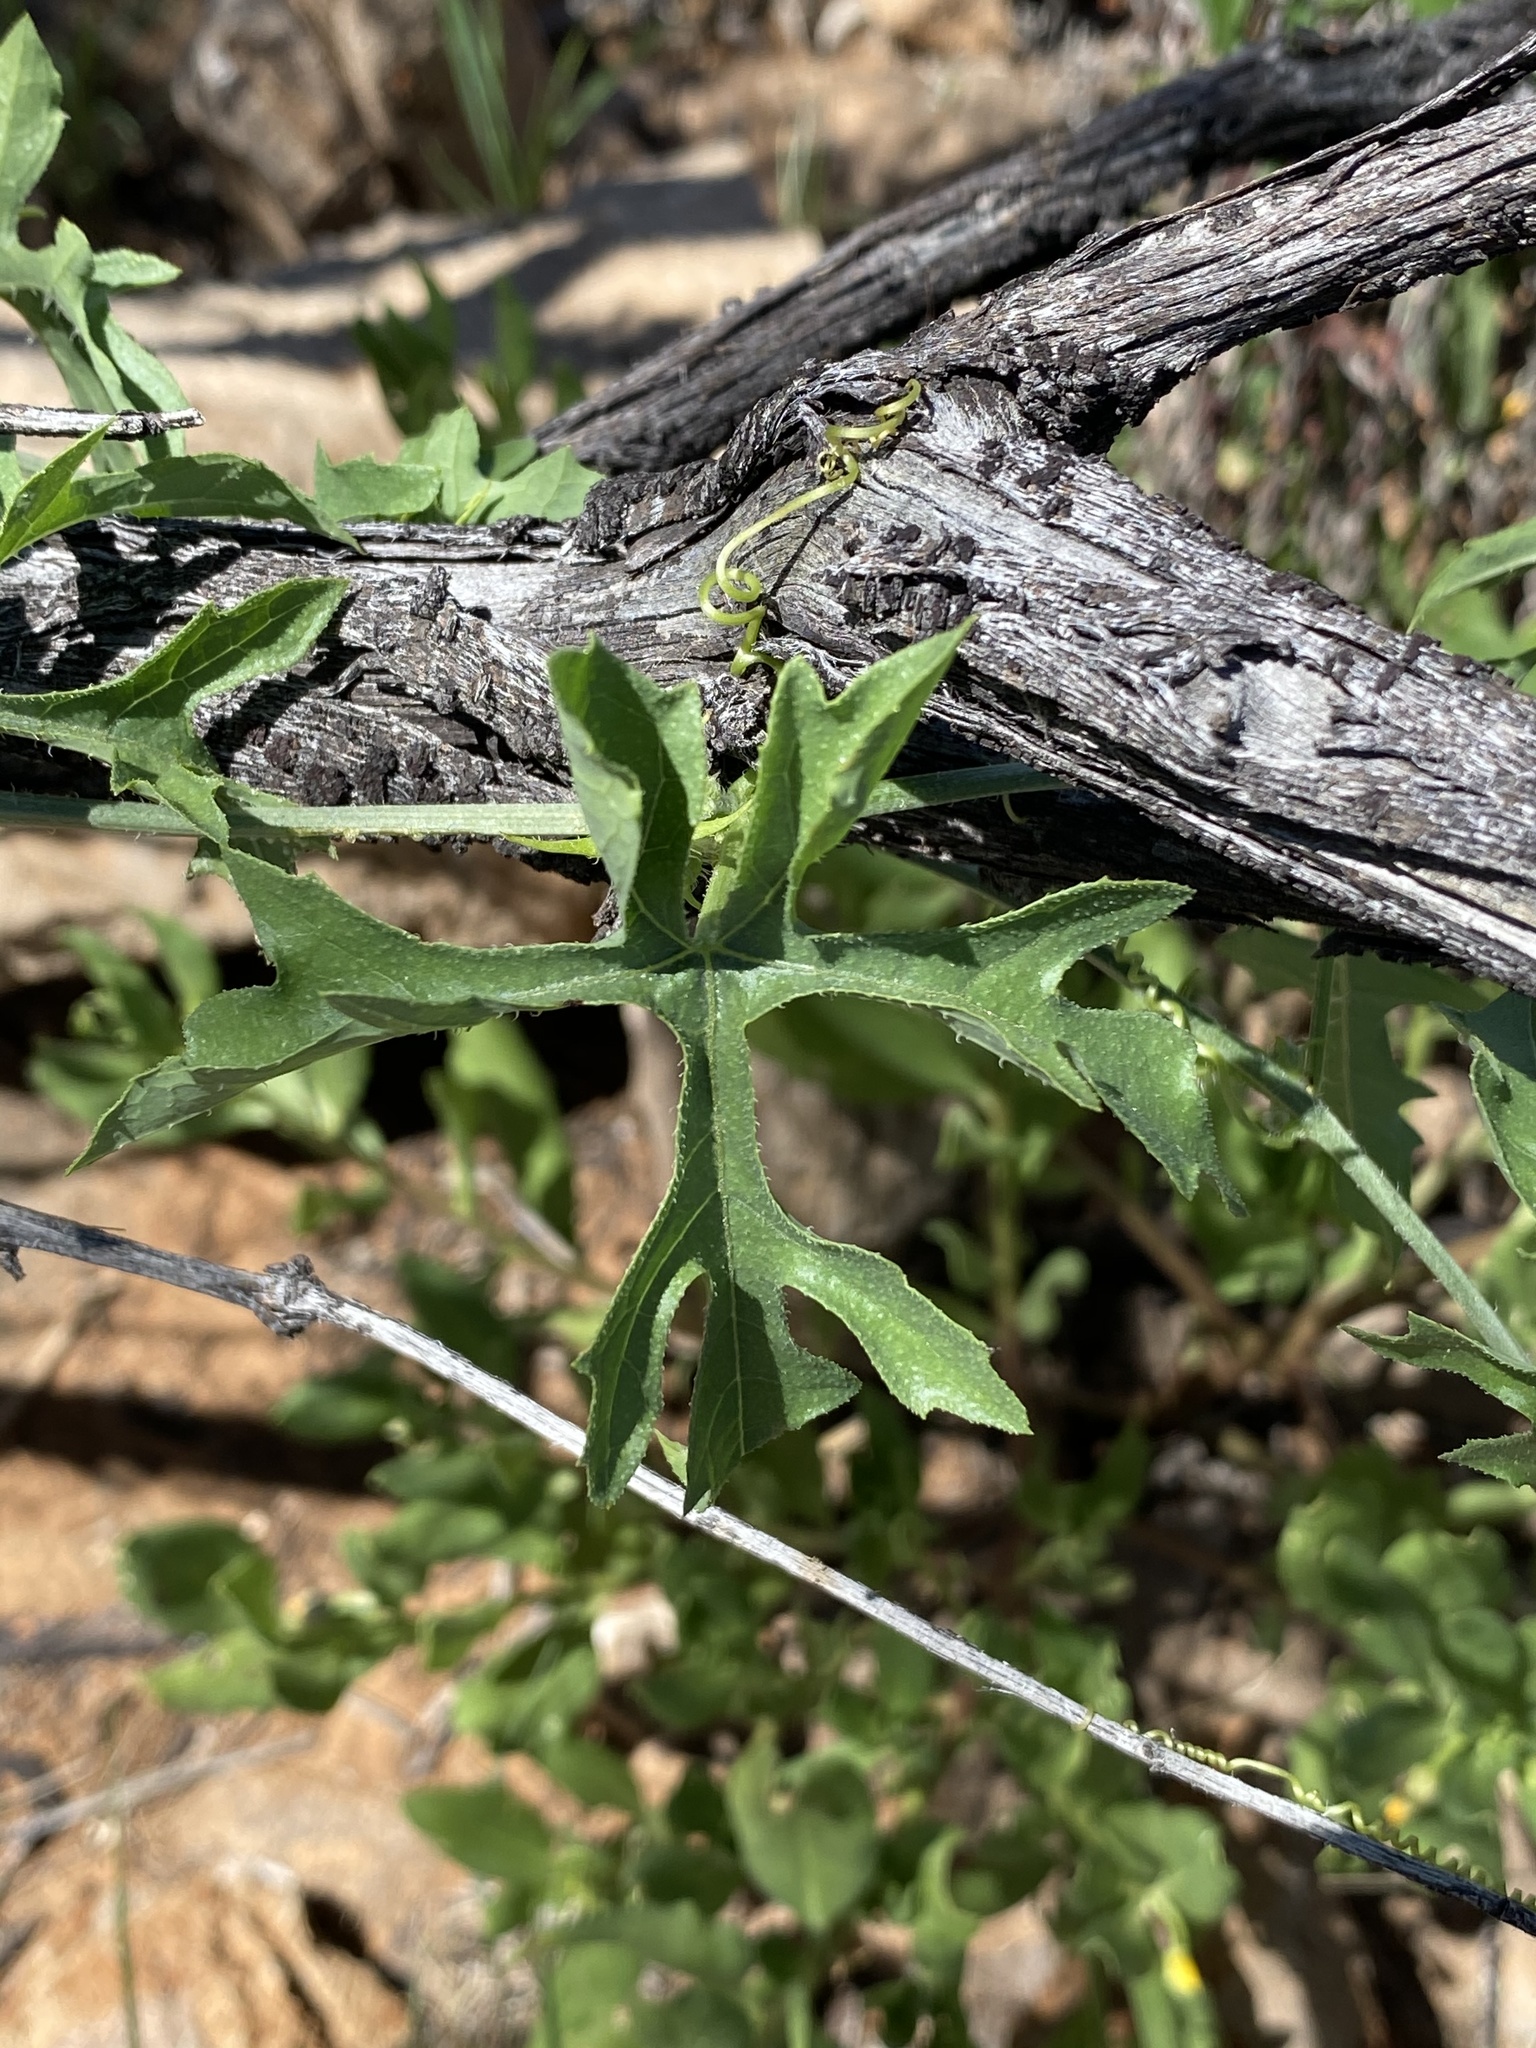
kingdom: Plantae
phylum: Tracheophyta
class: Magnoliopsida
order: Cucurbitales
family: Cucurbitaceae
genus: Coccinia
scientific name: Coccinia rehmannii
